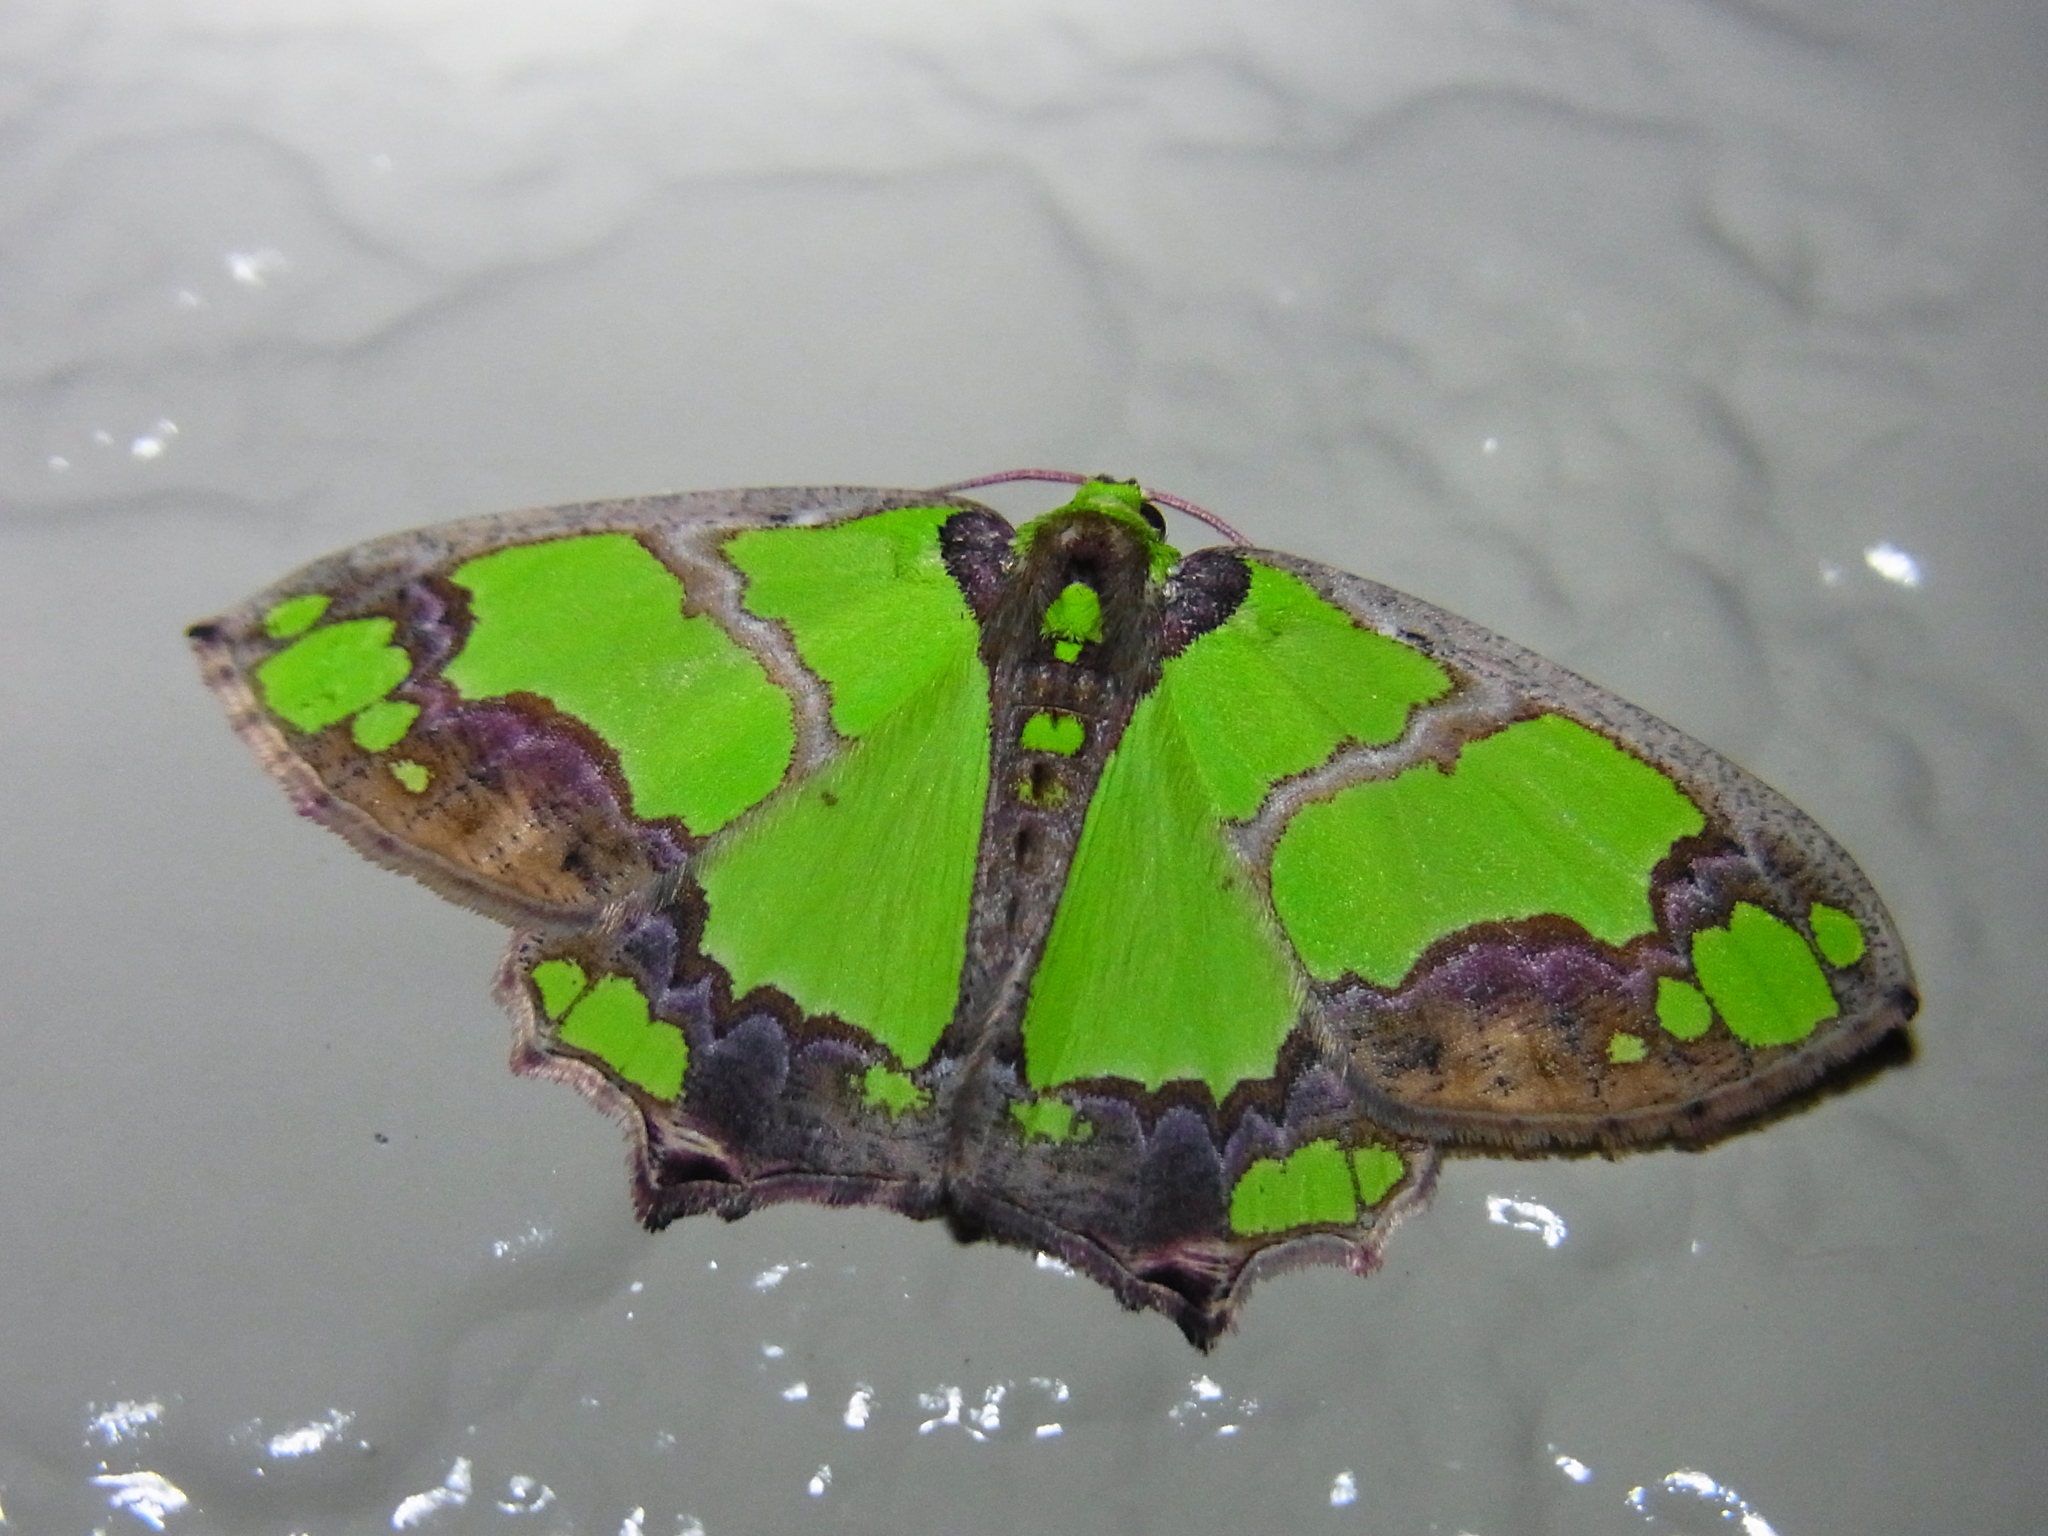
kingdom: Animalia
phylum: Arthropoda
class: Insecta
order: Lepidoptera
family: Geometridae
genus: Agathia
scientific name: Agathia visenda
